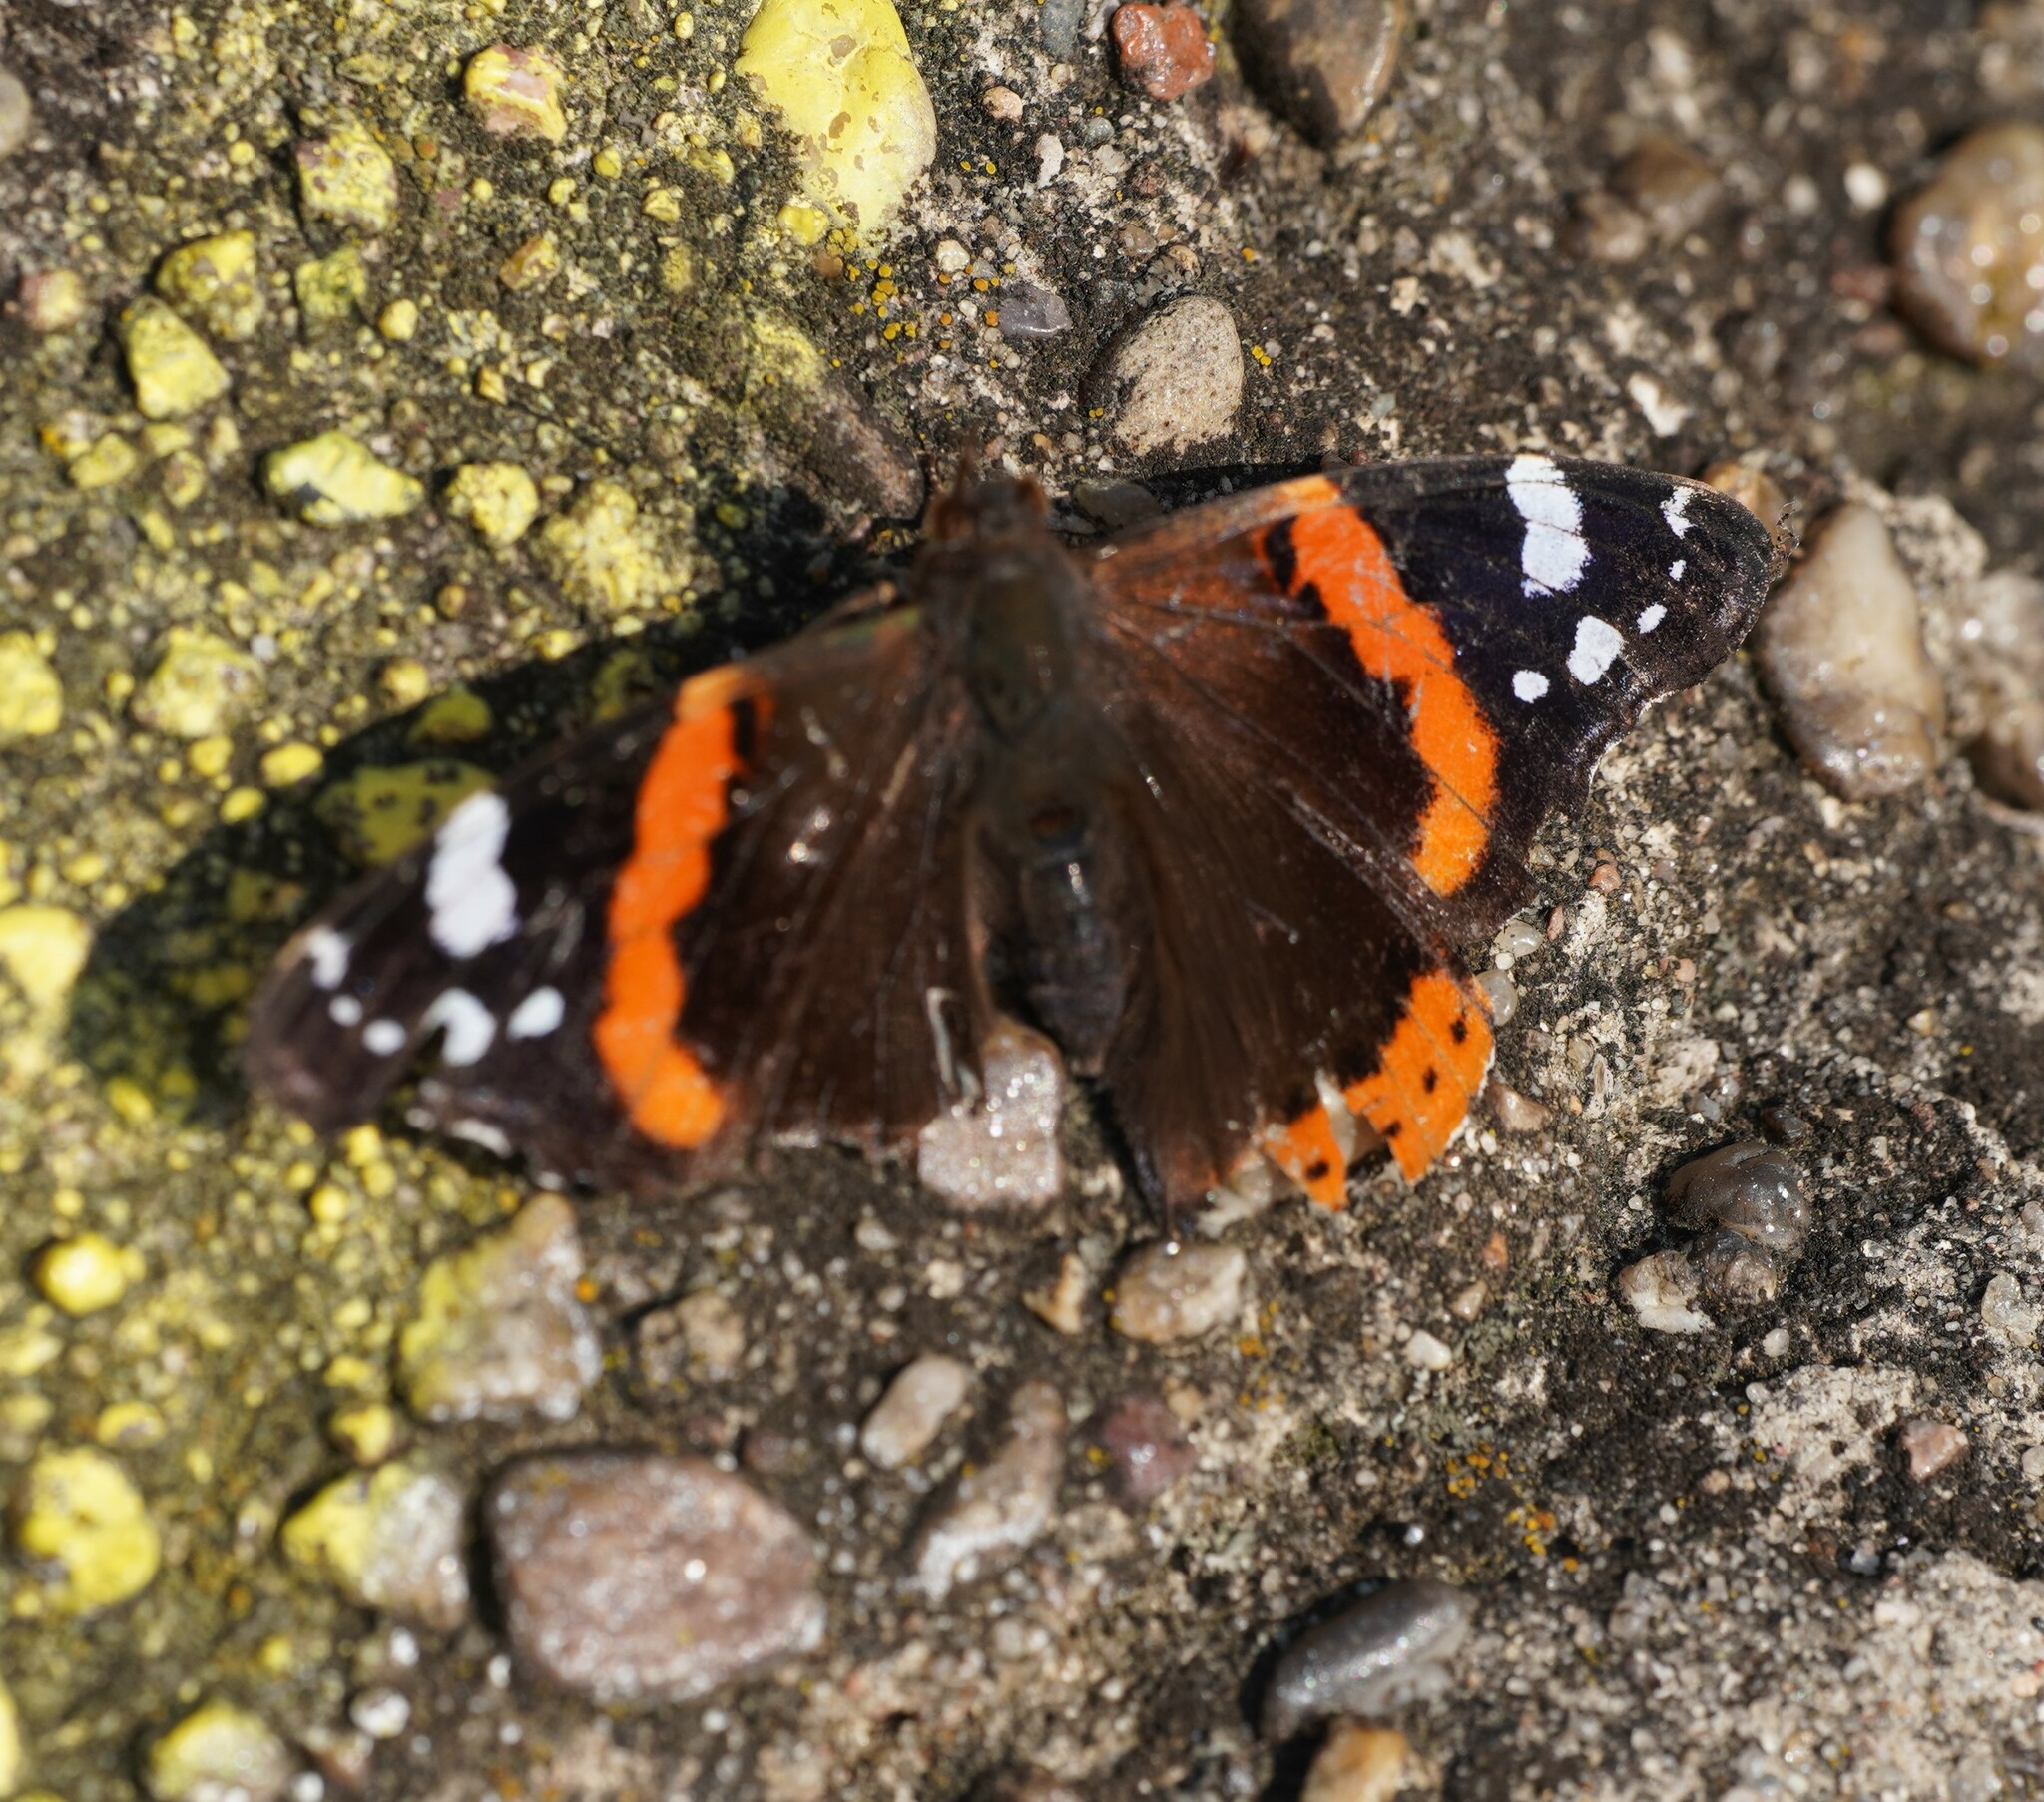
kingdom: Animalia
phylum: Arthropoda
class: Insecta
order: Lepidoptera
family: Nymphalidae
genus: Vanessa
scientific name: Vanessa atalanta
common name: Red admiral
